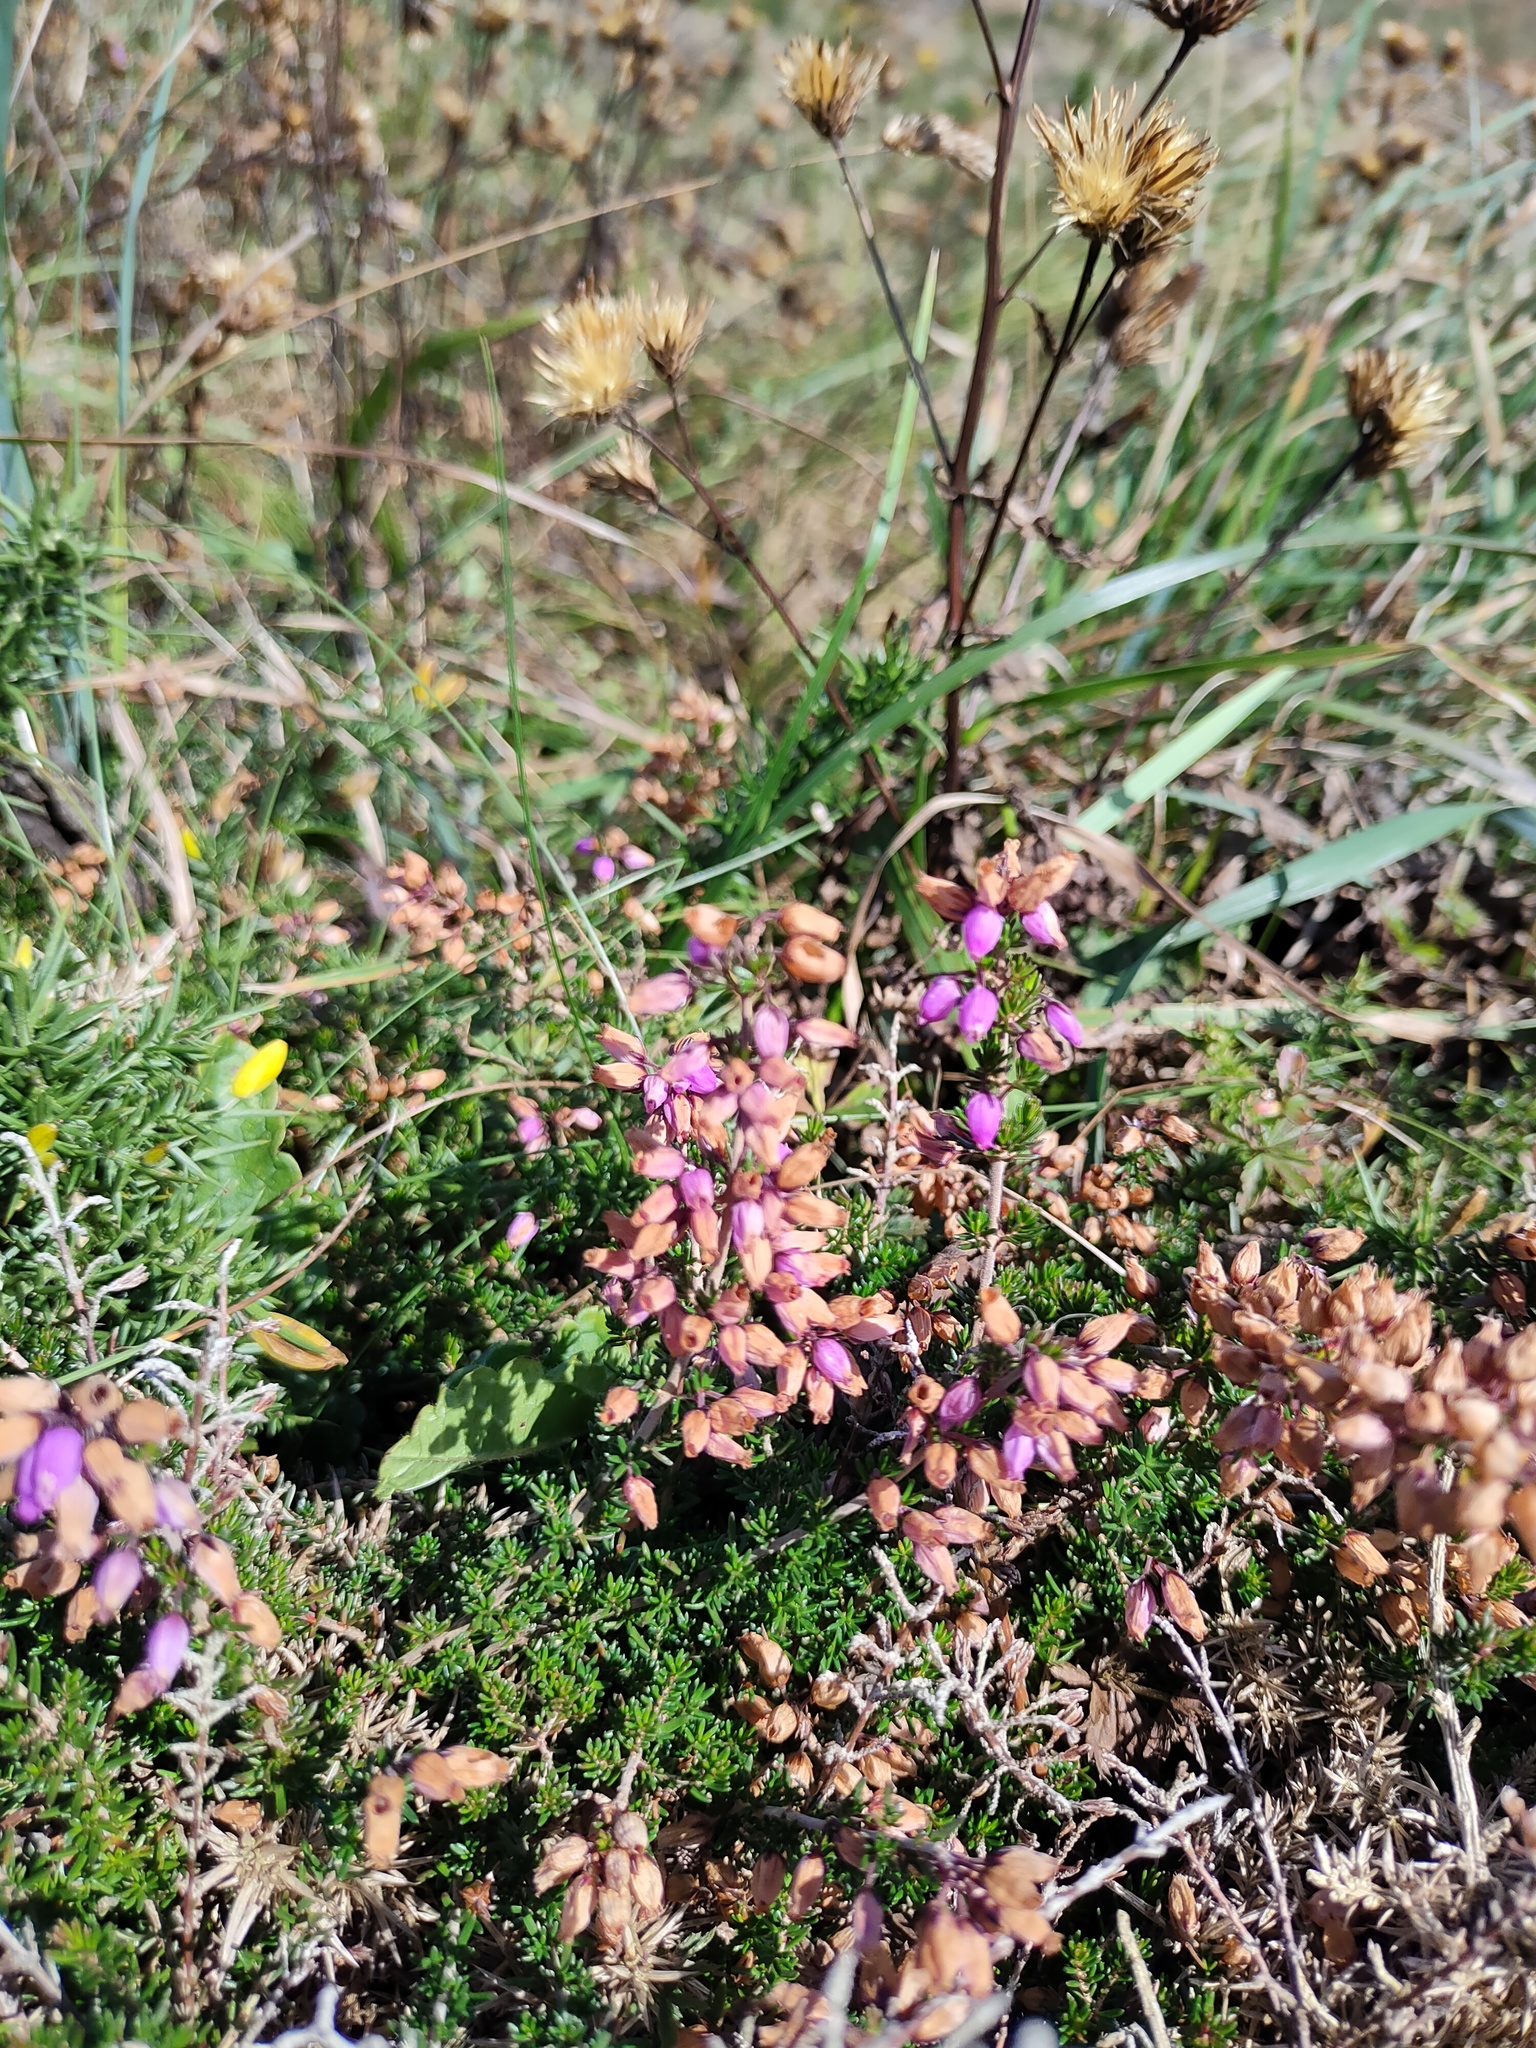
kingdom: Plantae
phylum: Tracheophyta
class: Magnoliopsida
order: Ericales
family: Ericaceae
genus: Erica
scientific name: Erica cinerea
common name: Bell heather
